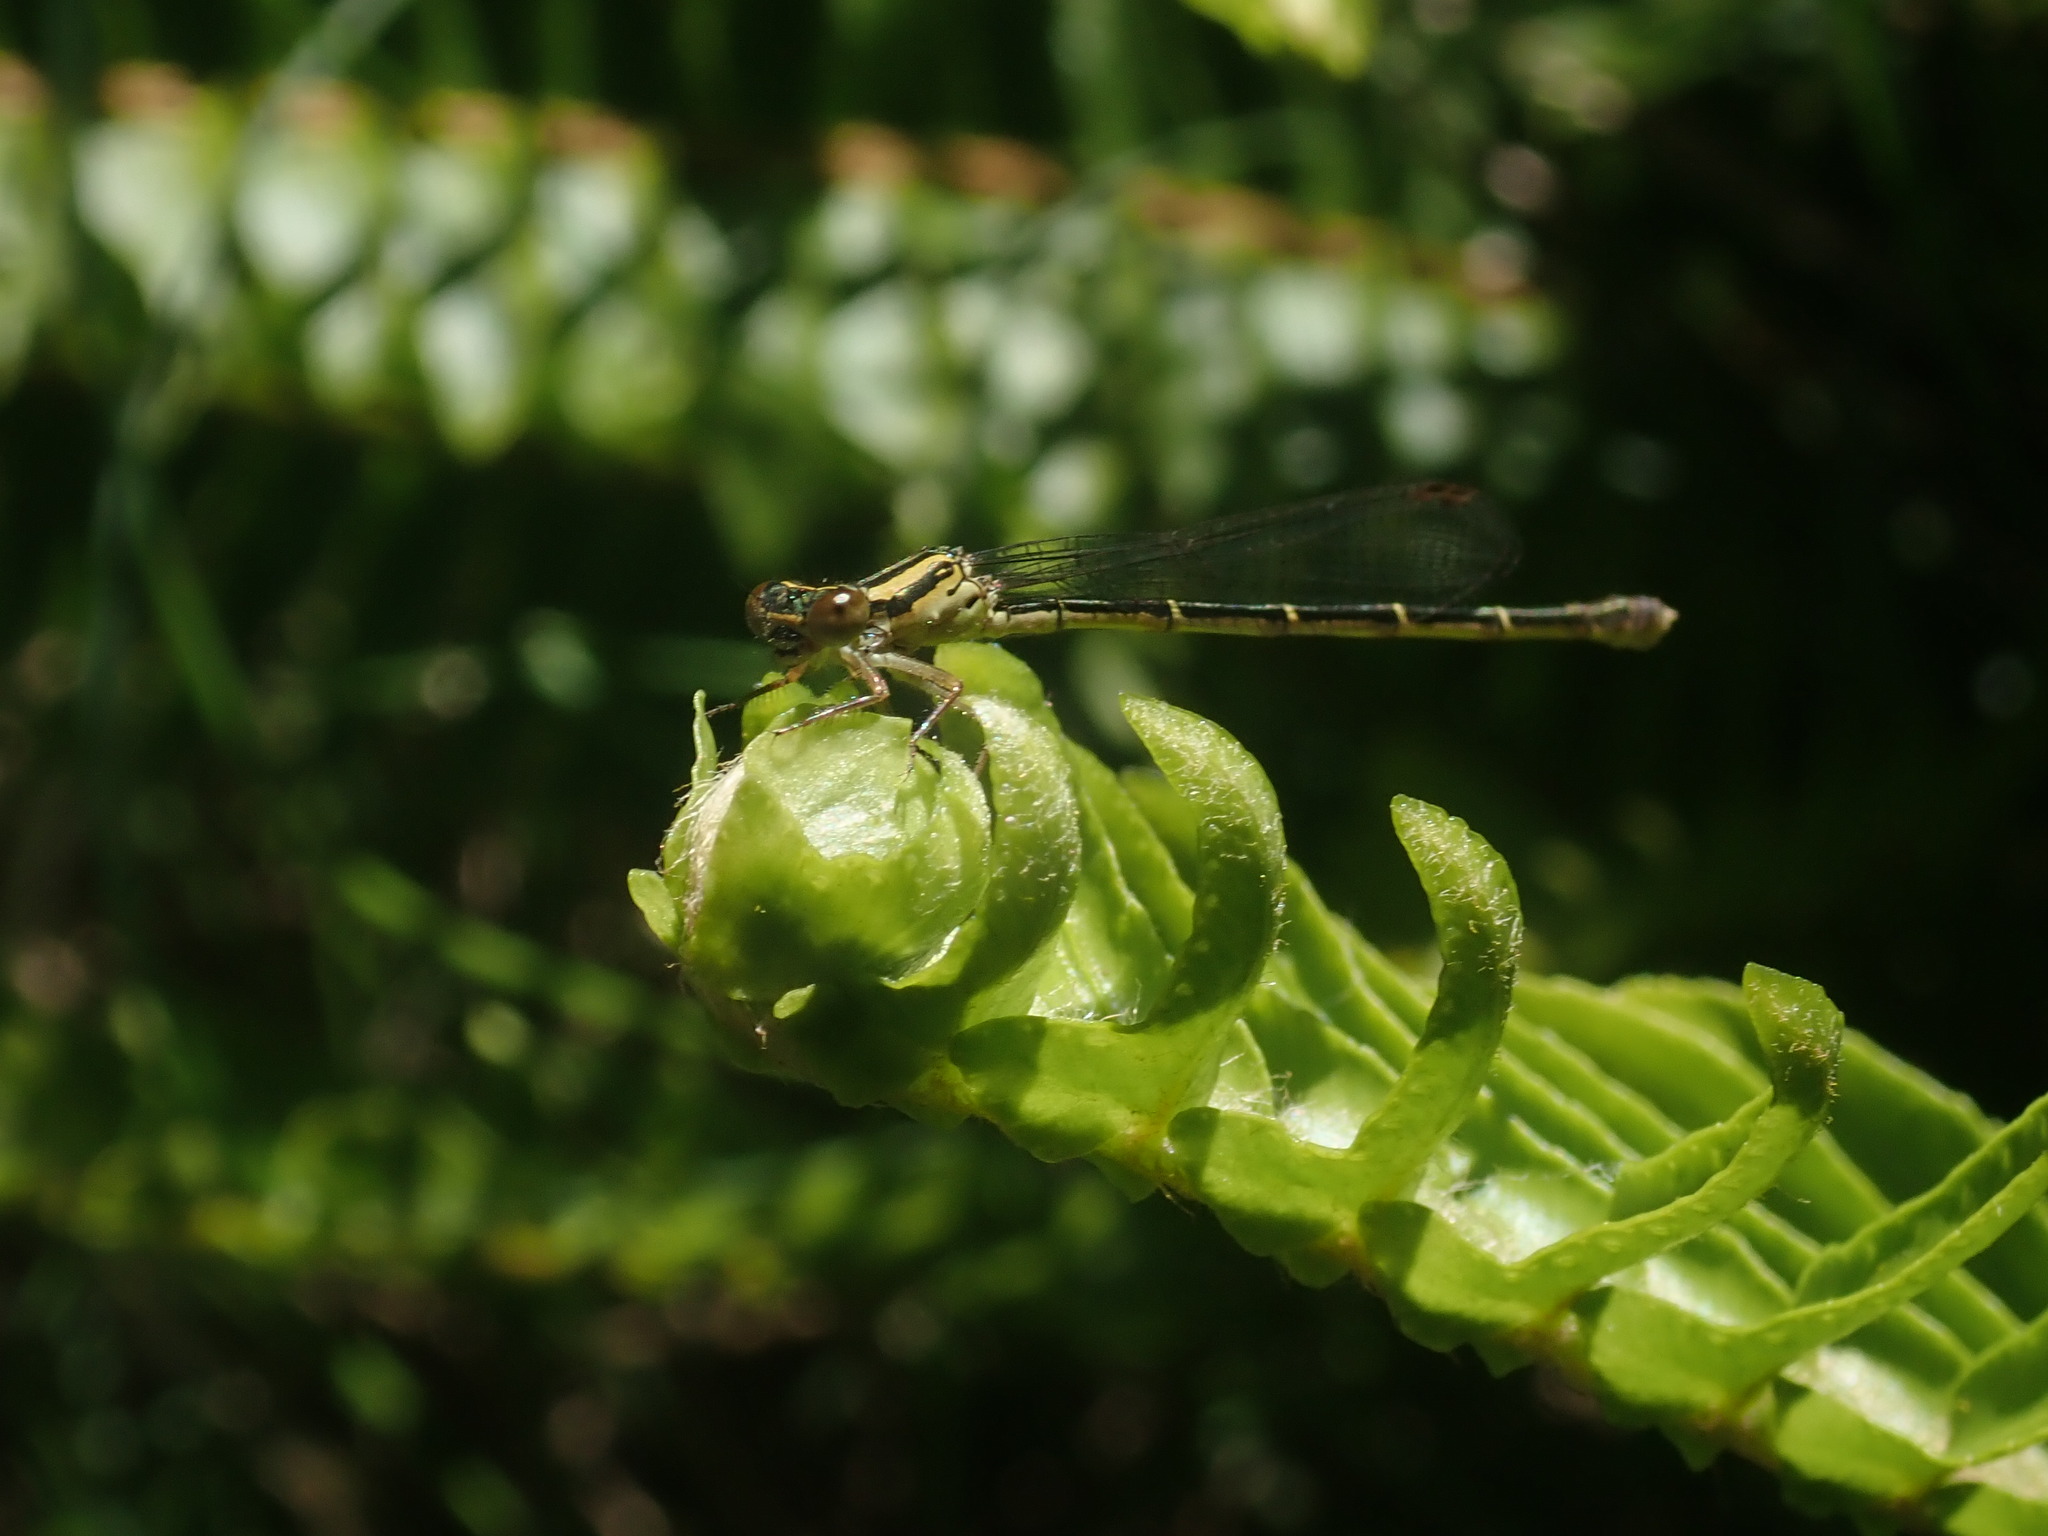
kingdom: Animalia
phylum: Arthropoda
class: Insecta
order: Odonata
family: Coenagrionidae
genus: Xanthocnemis
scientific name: Xanthocnemis zealandica
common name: Common redcoat damselfly
